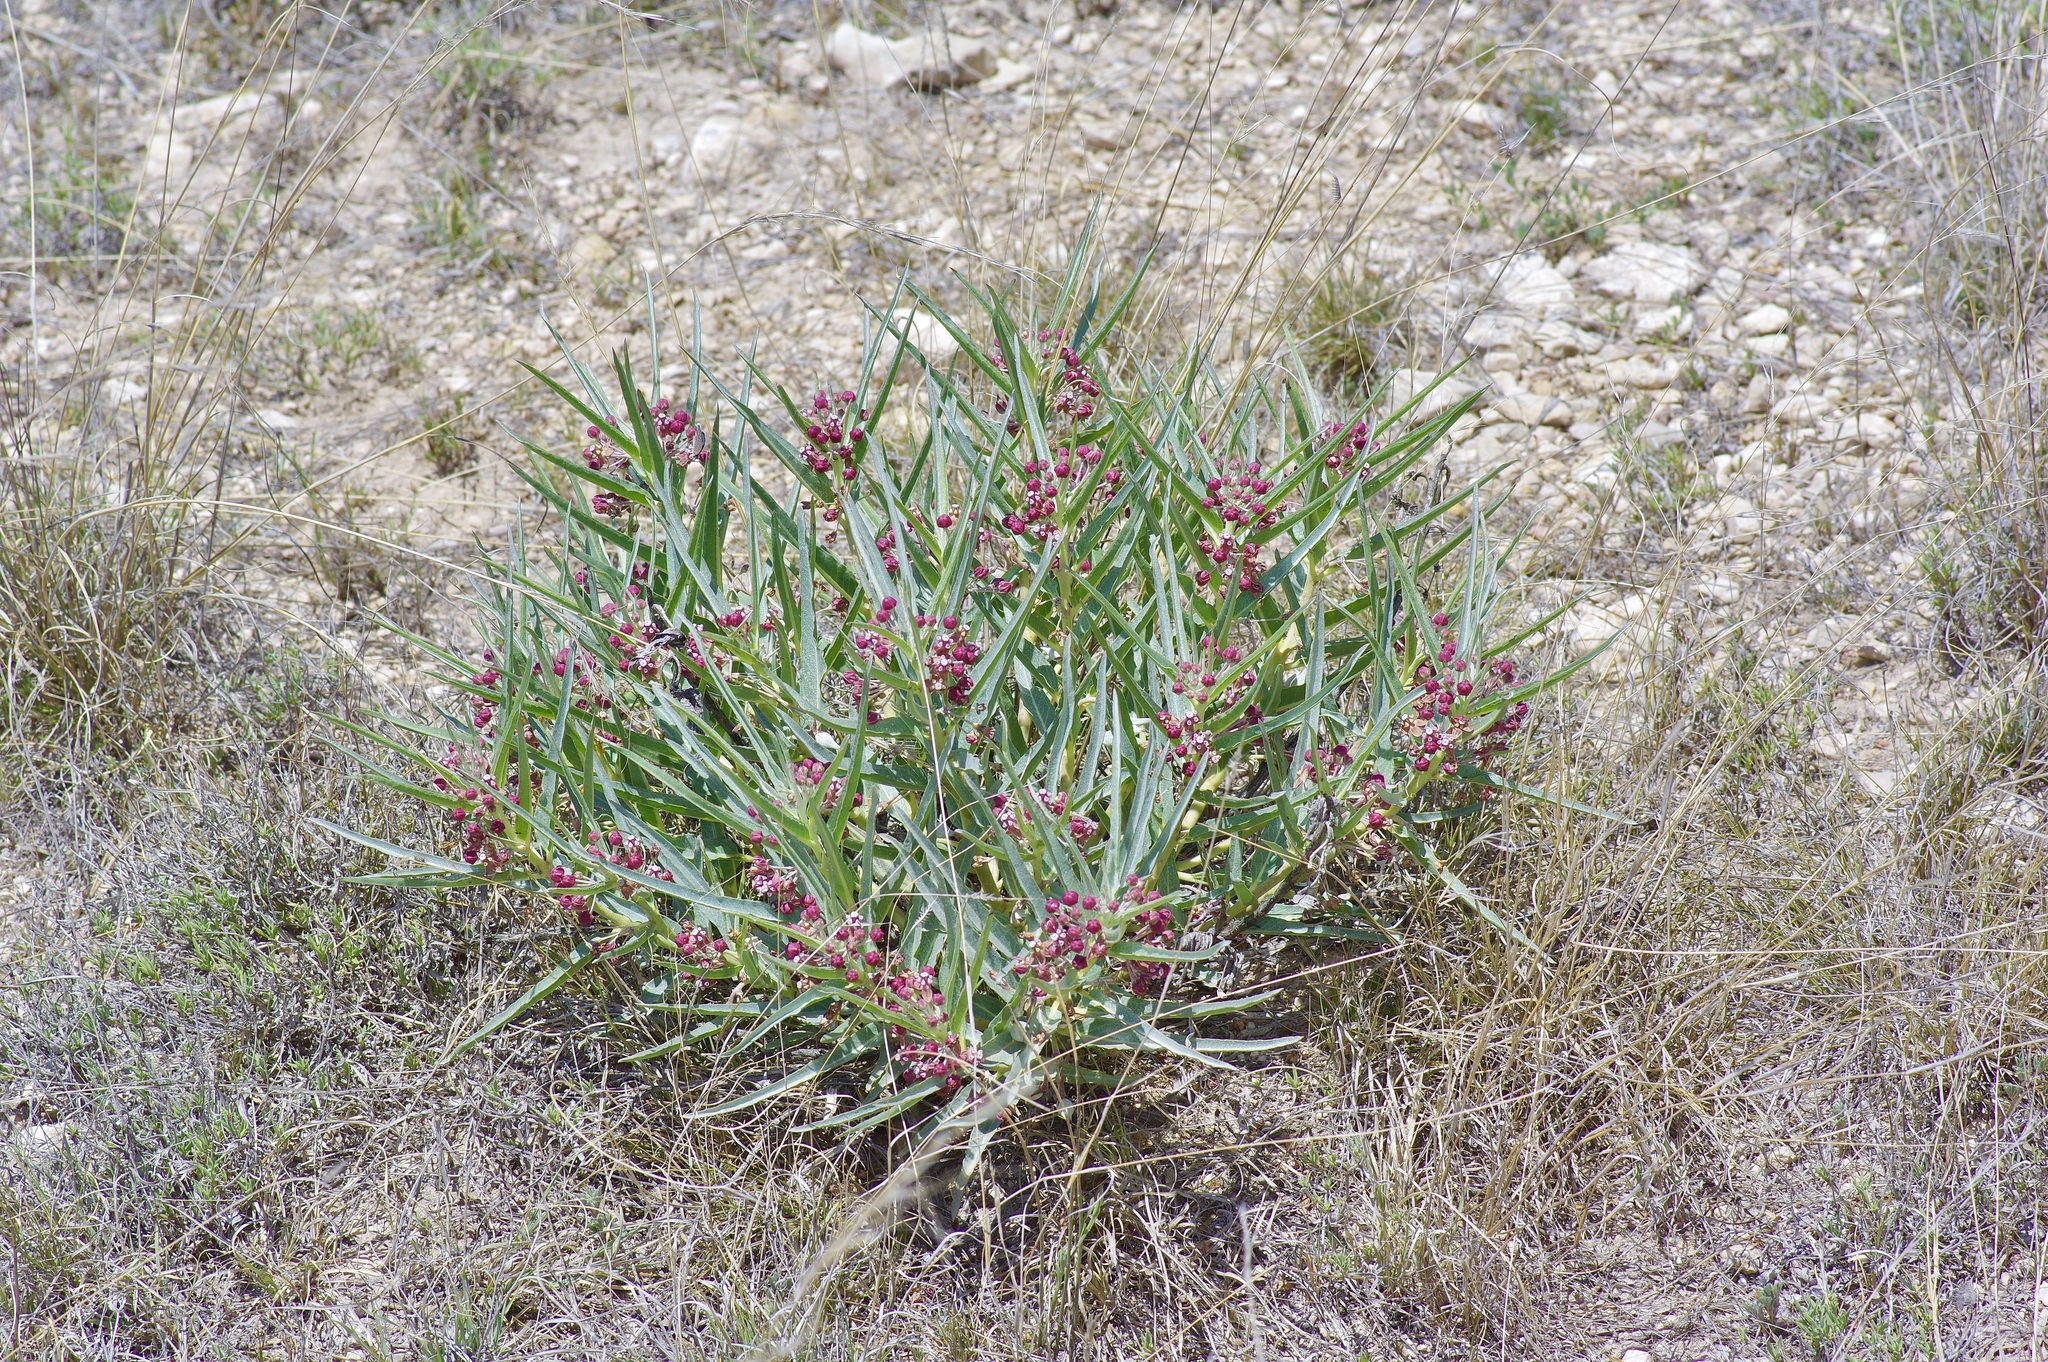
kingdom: Plantae
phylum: Tracheophyta
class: Magnoliopsida
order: Gentianales
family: Apocynaceae
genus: Asclepias
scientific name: Asclepias brachystephana
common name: Shortcrown milkweed
